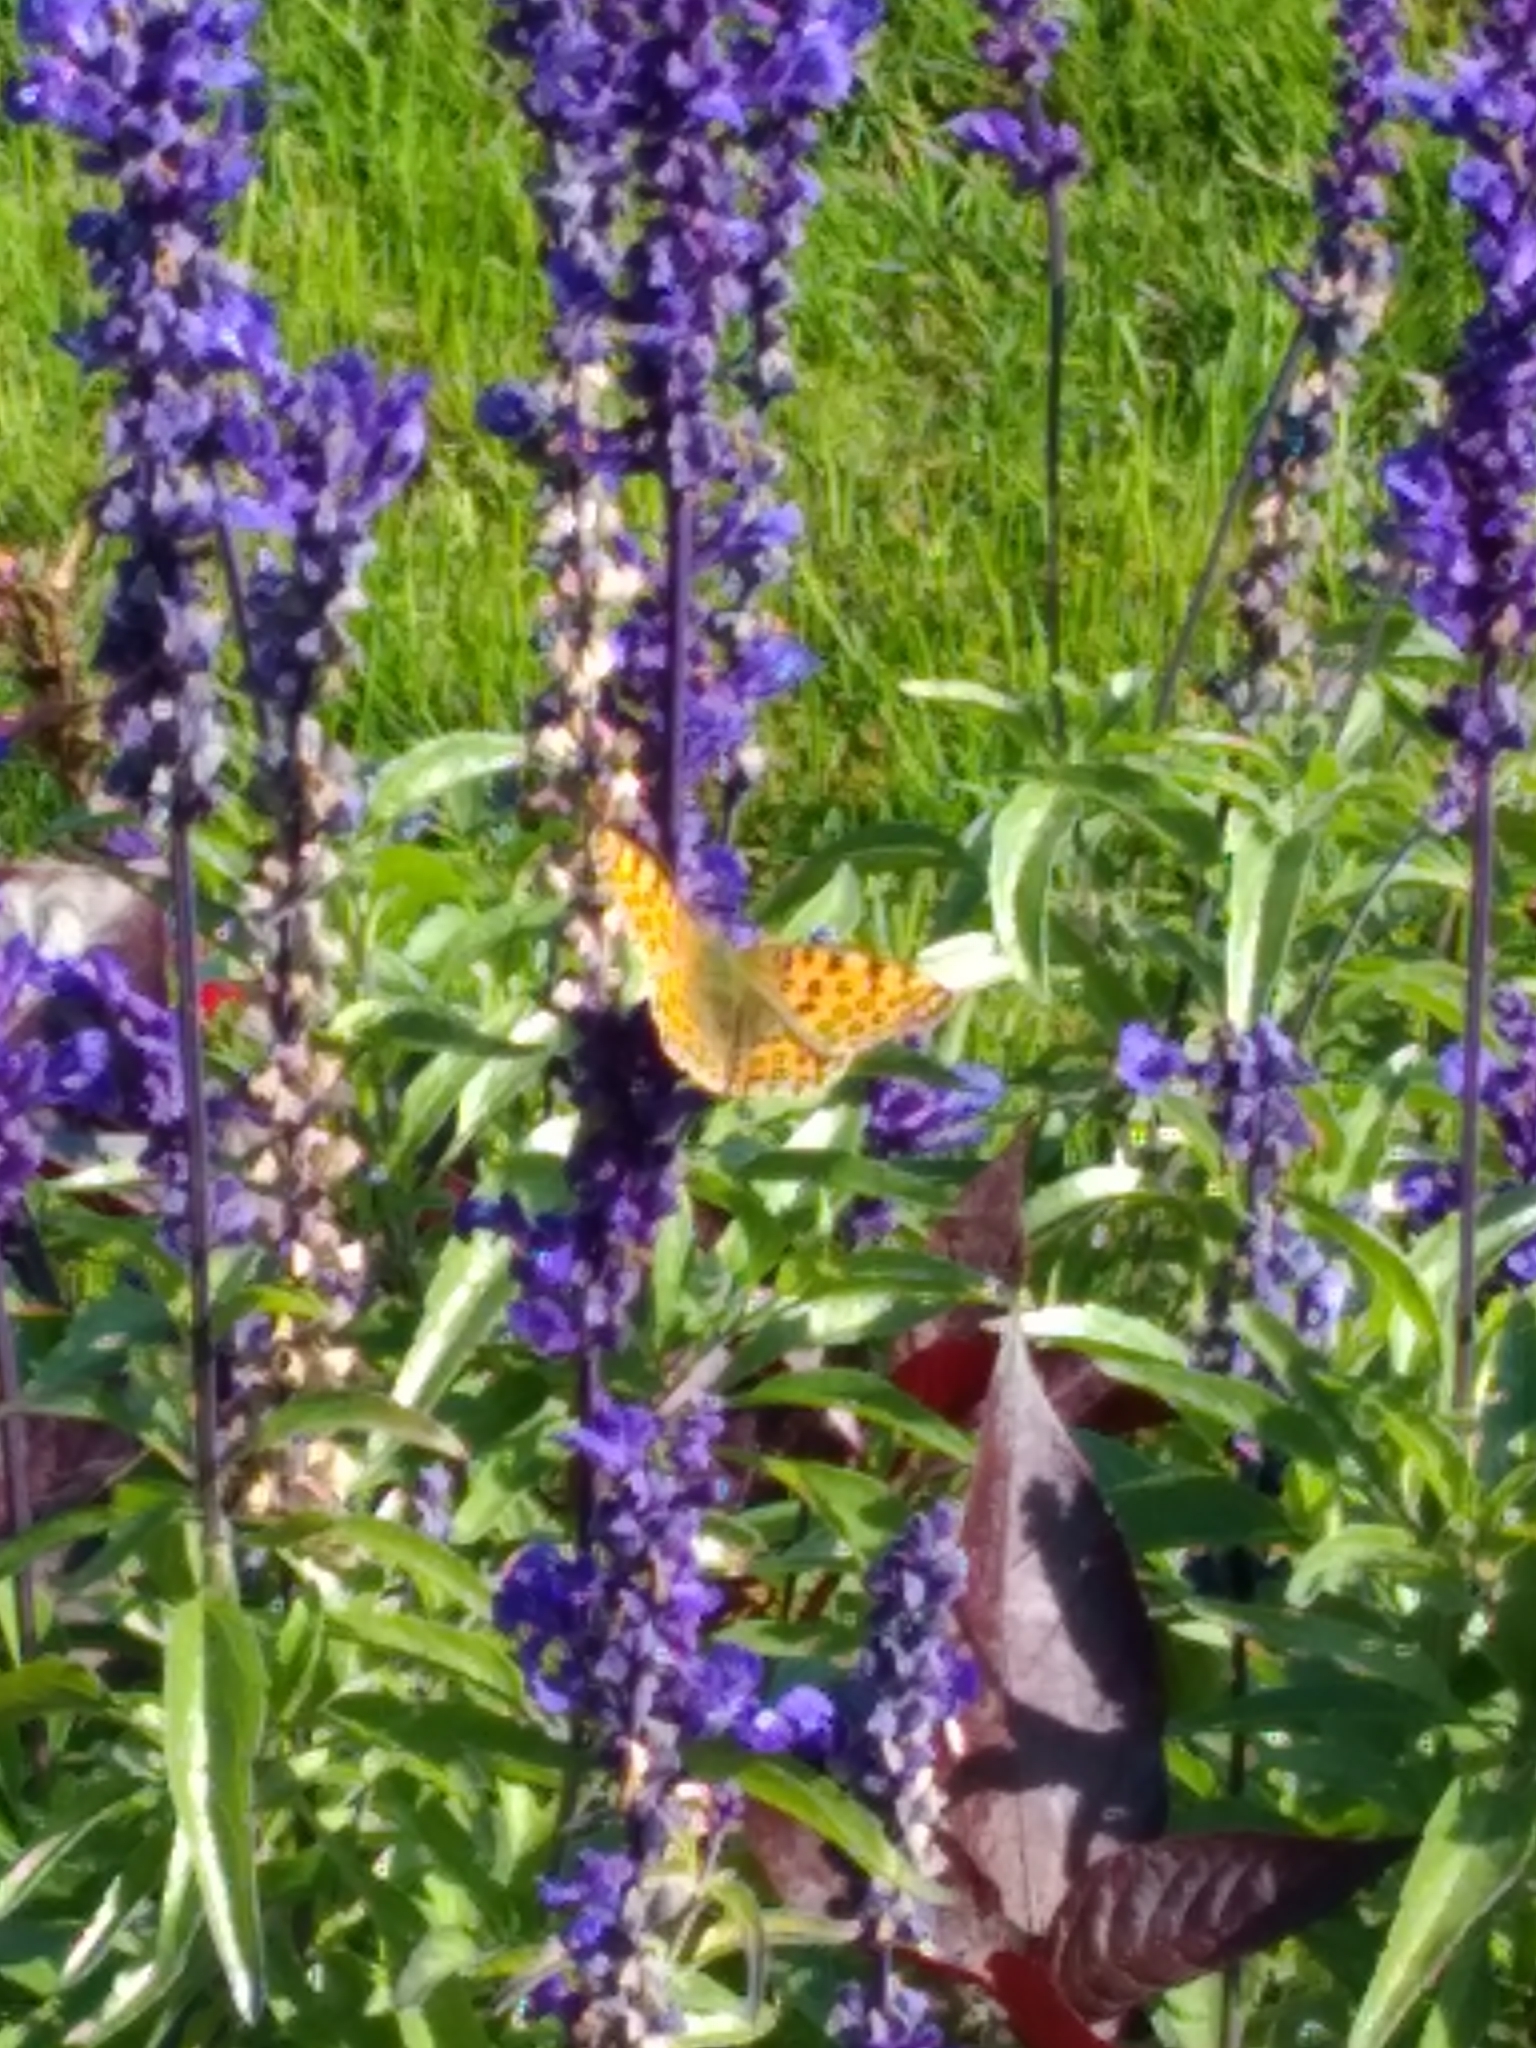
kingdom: Animalia
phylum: Arthropoda
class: Insecta
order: Lepidoptera
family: Nymphalidae
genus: Issoria
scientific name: Issoria lathonia
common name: Queen of spain fritillary
